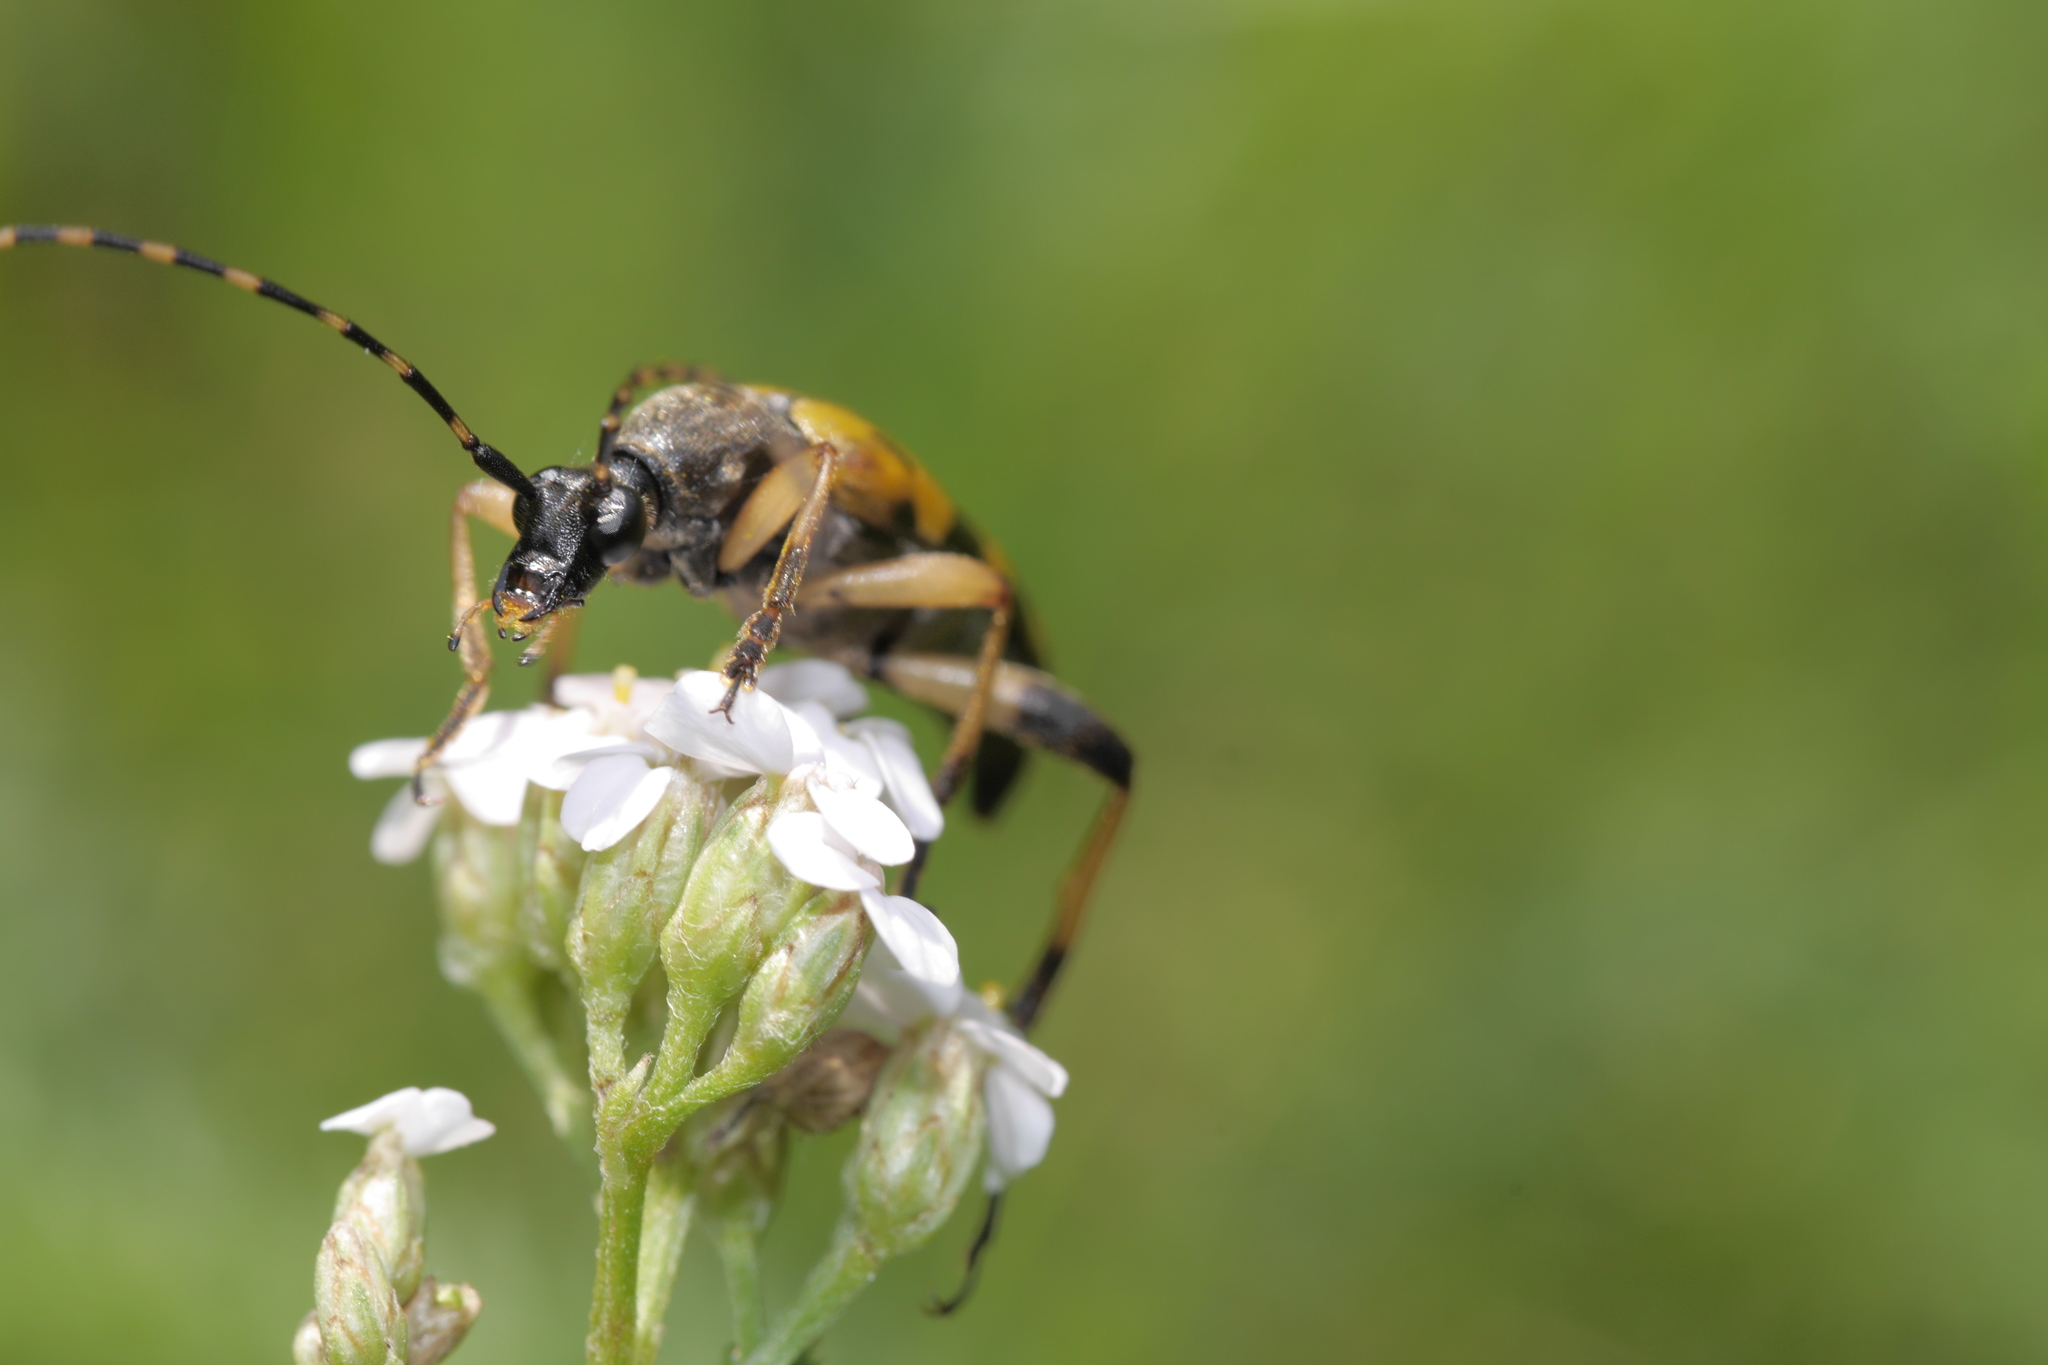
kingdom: Animalia
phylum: Arthropoda
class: Insecta
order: Coleoptera
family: Cerambycidae
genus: Stenurella
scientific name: Stenurella bifasciata
